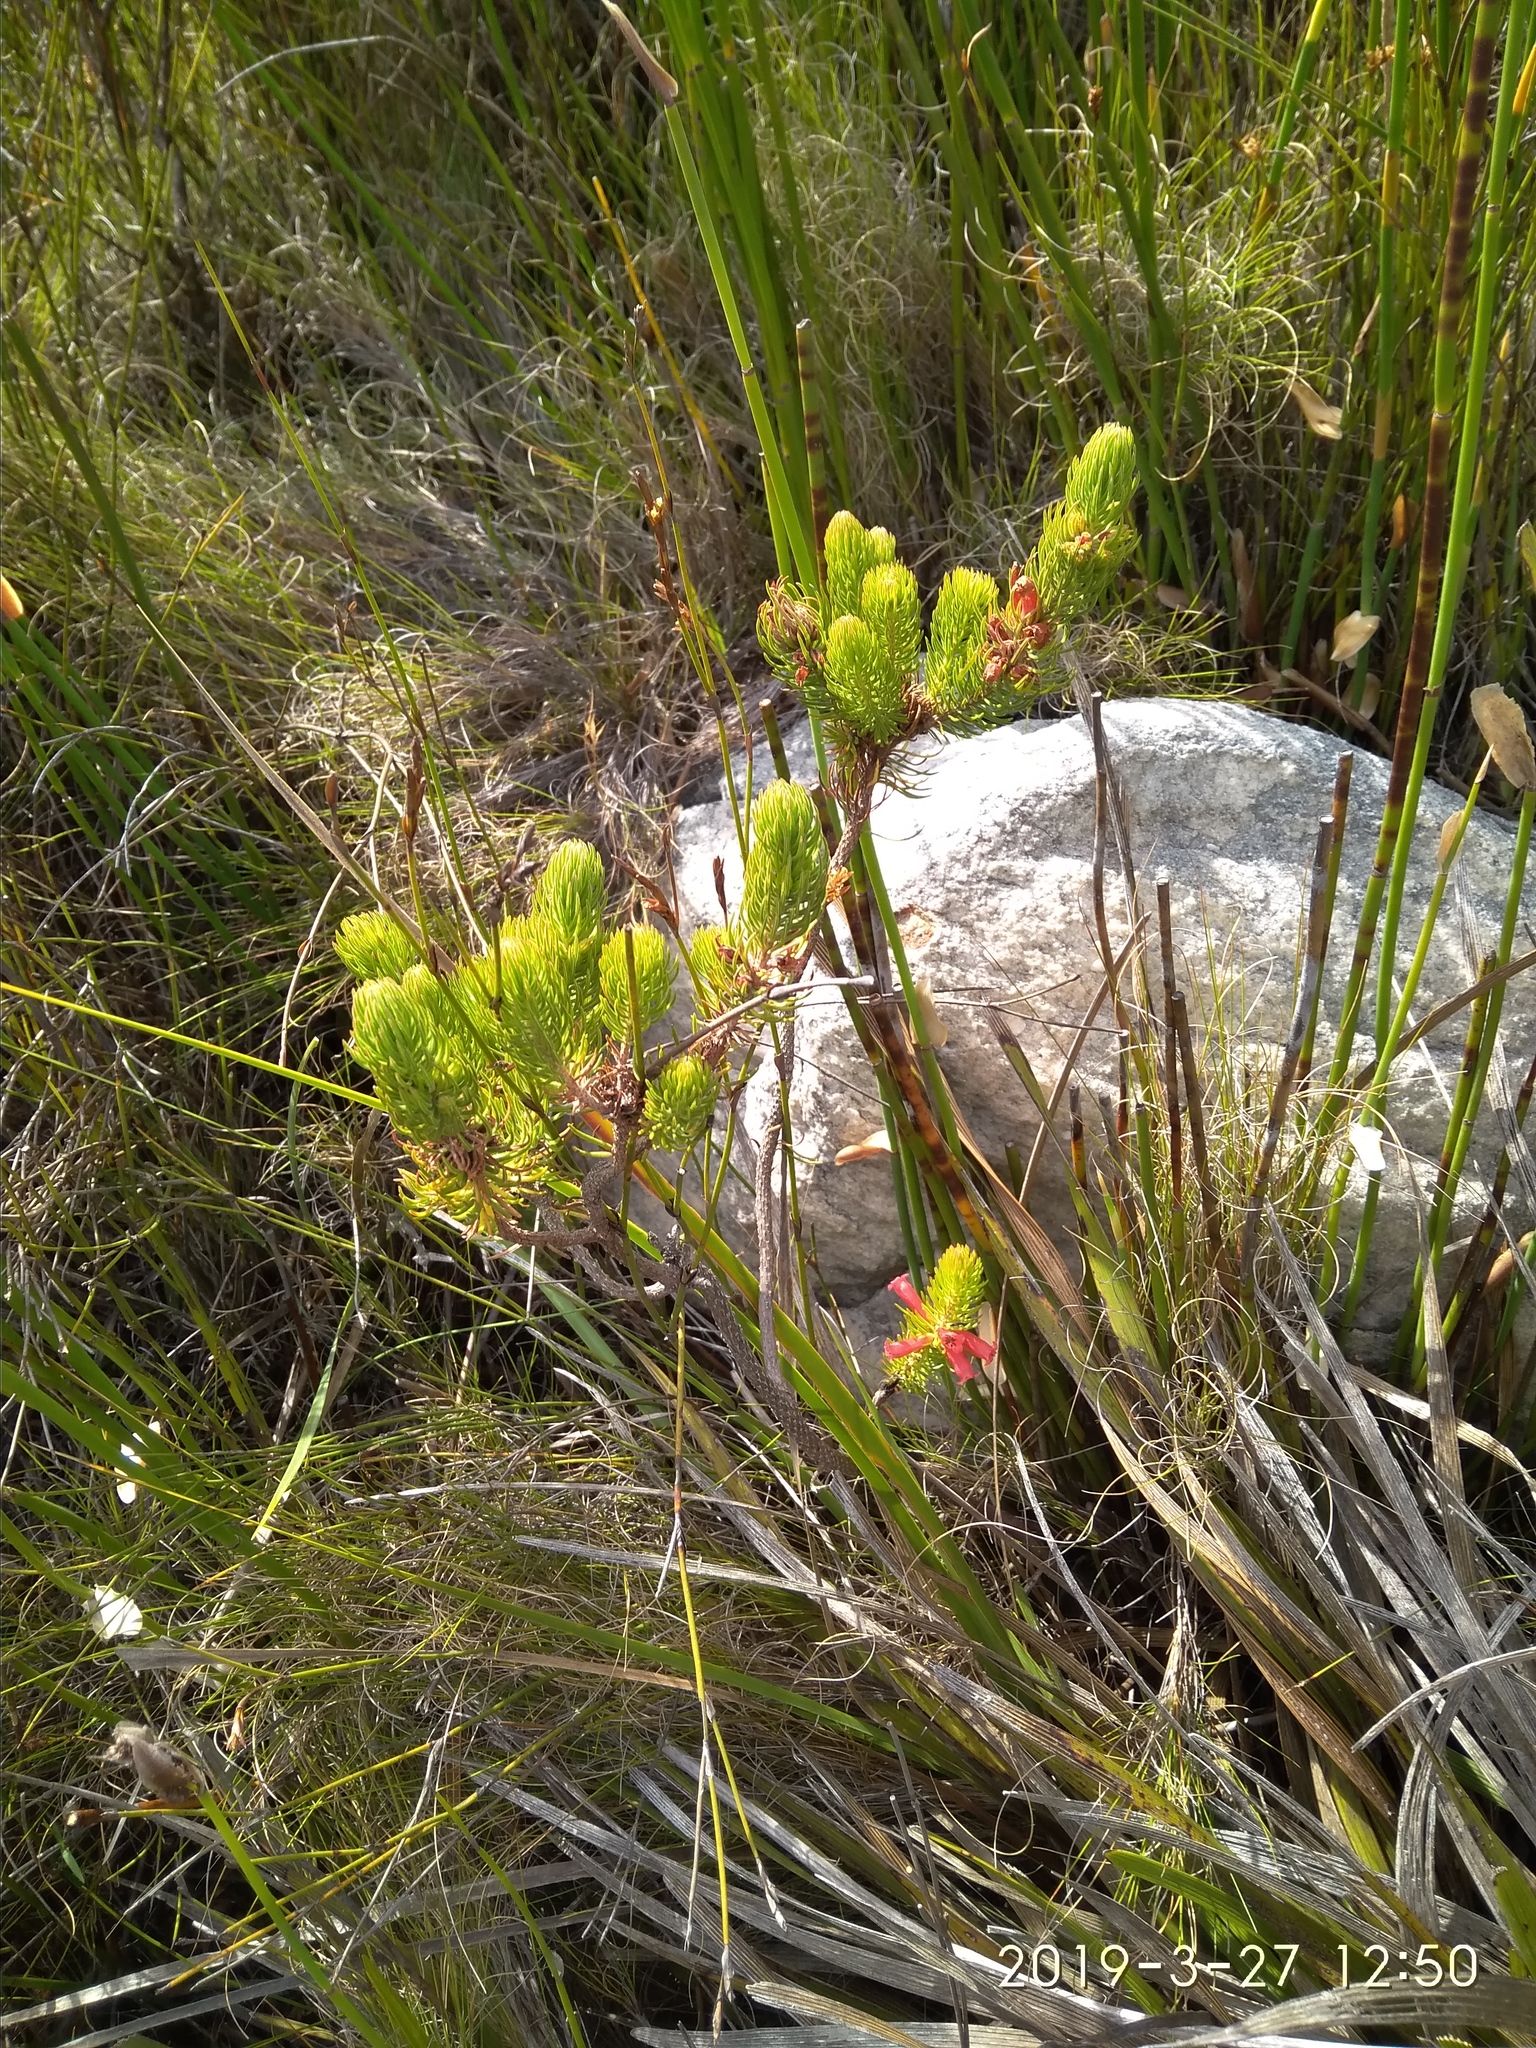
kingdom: Plantae
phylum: Tracheophyta
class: Magnoliopsida
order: Ericales
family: Ericaceae
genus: Erica
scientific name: Erica viscaria
